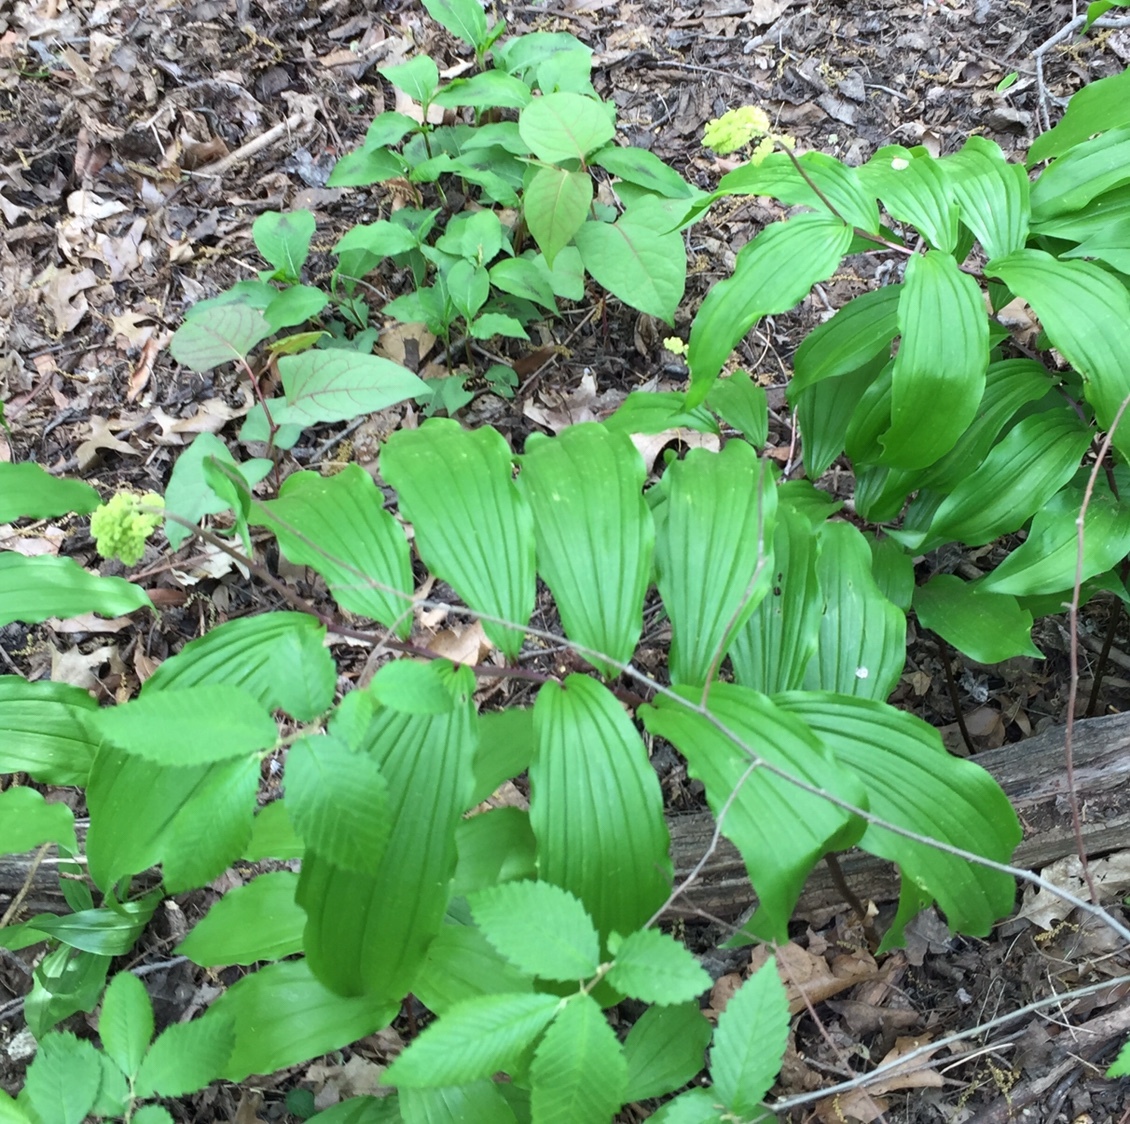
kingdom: Plantae
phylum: Tracheophyta
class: Liliopsida
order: Asparagales
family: Asparagaceae
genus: Maianthemum
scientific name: Maianthemum racemosum
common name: False spikenard
